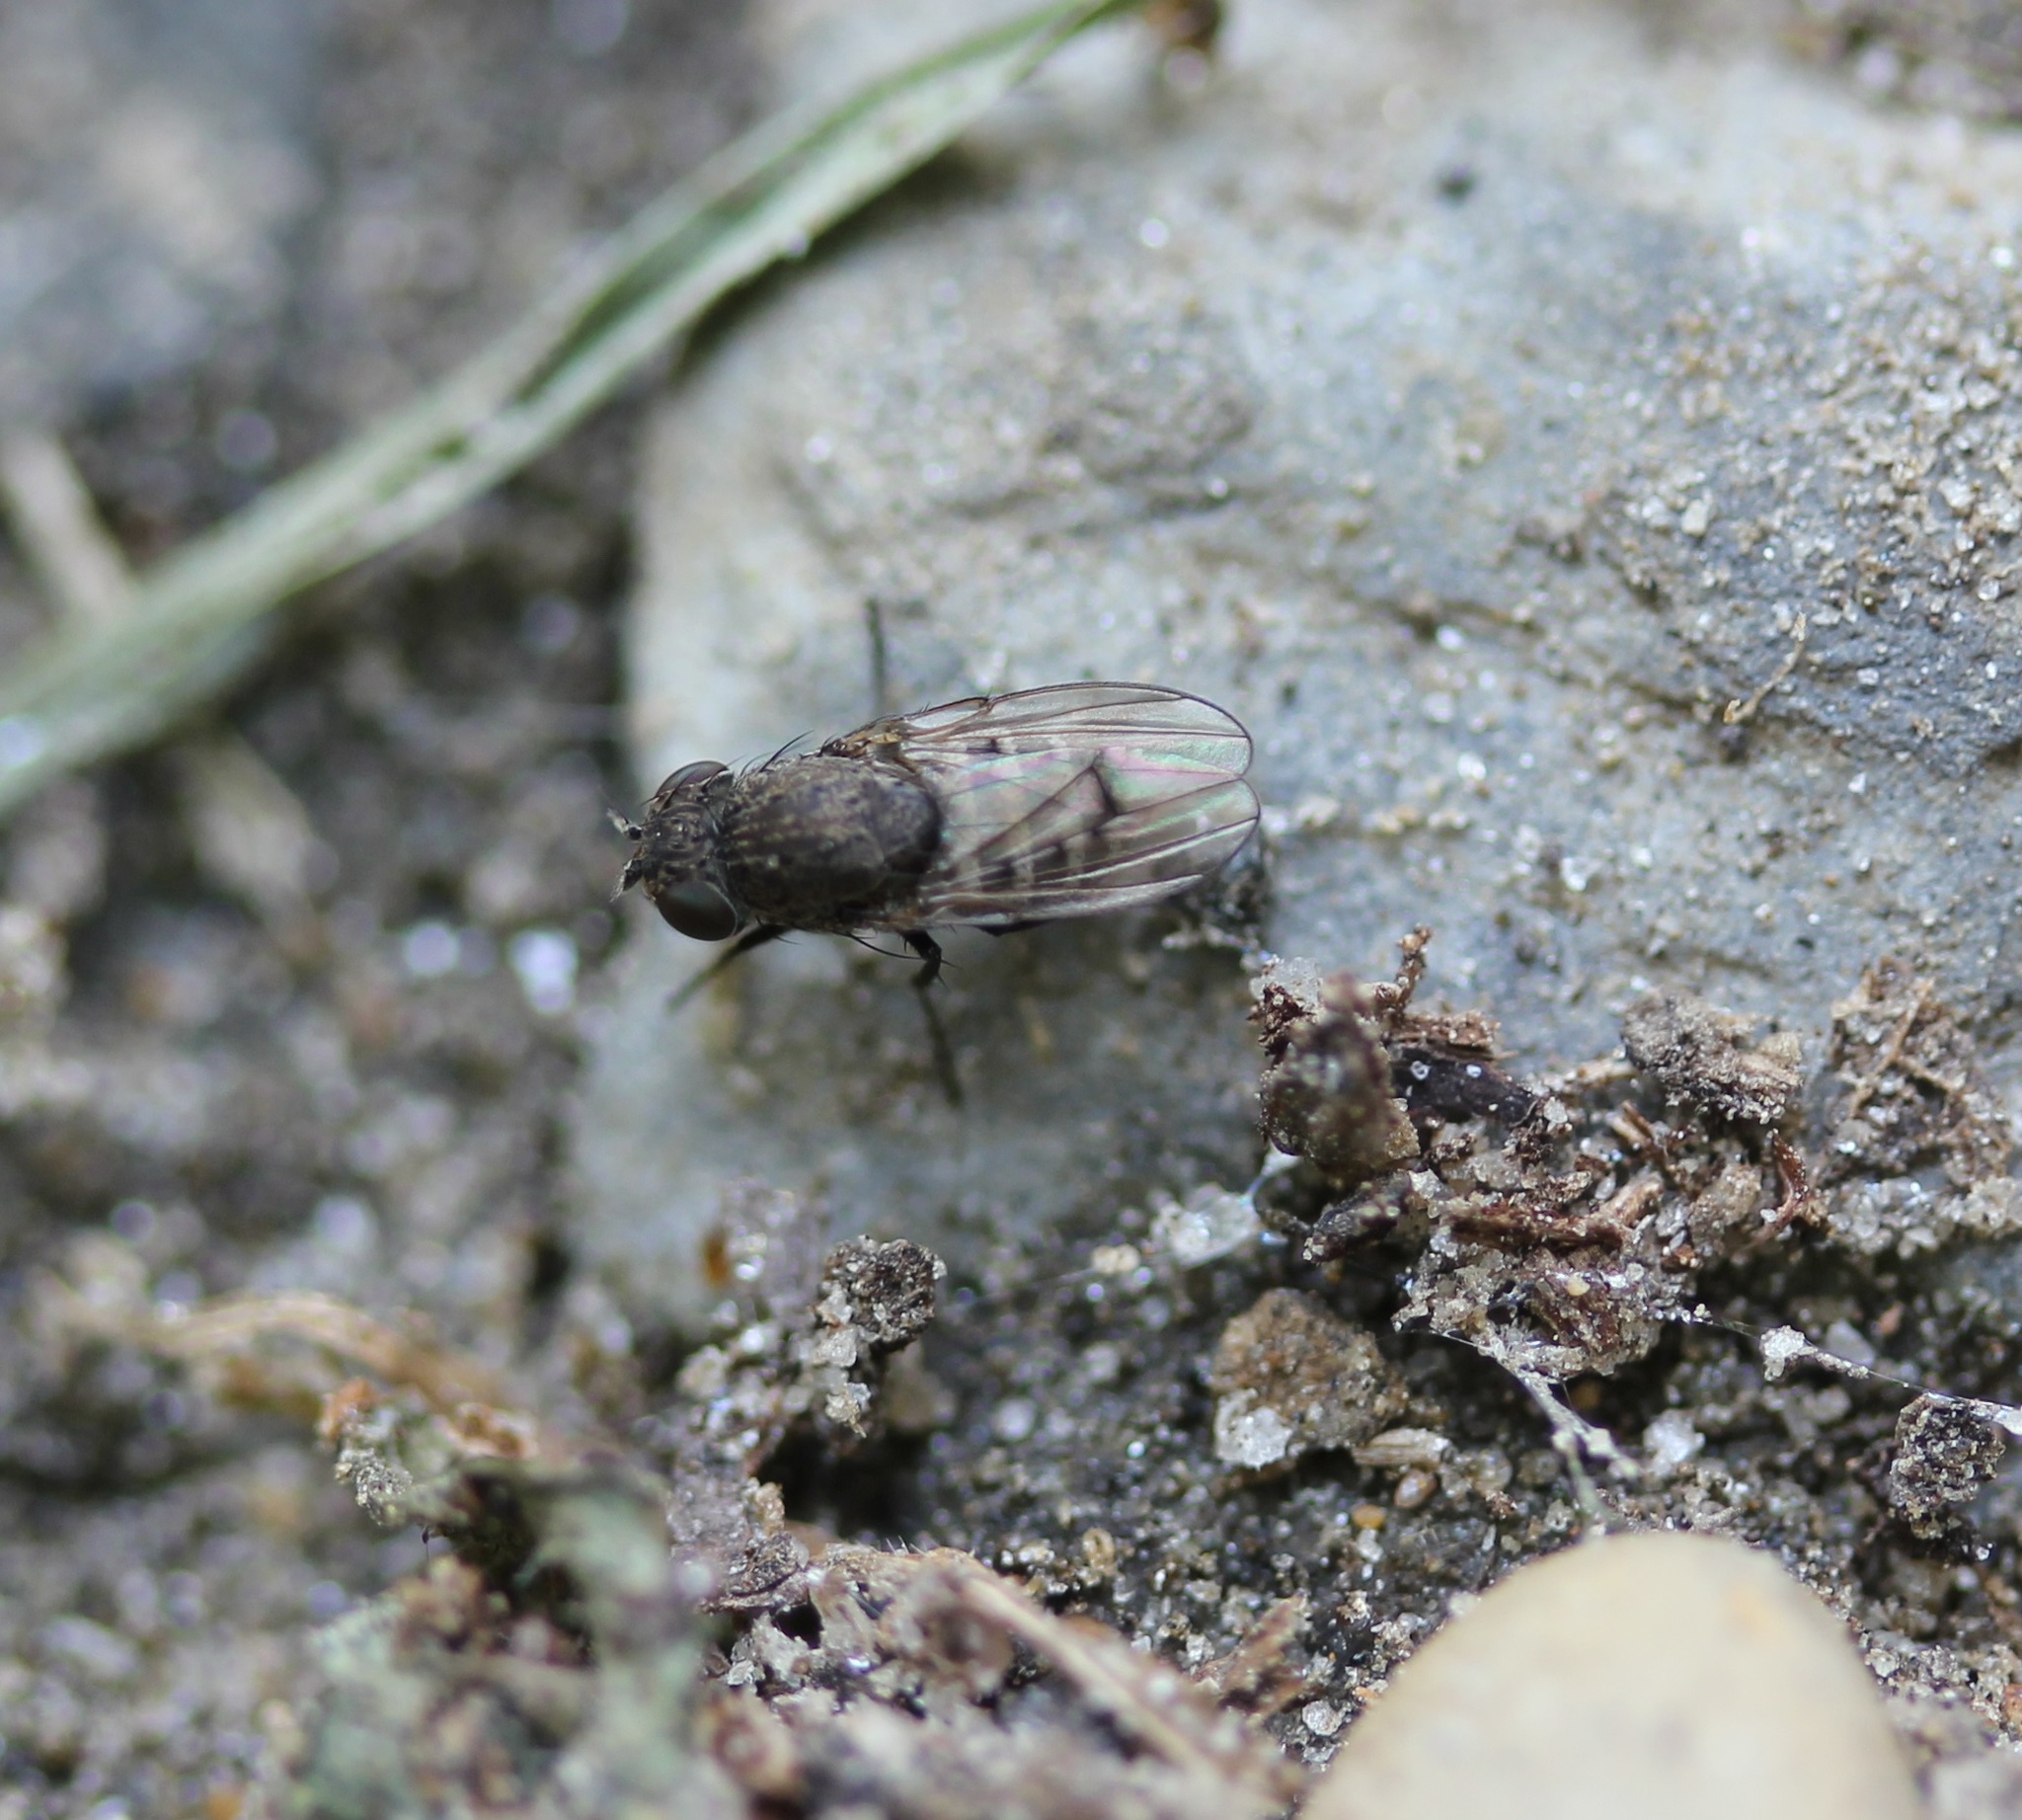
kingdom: Animalia
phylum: Arthropoda
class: Insecta
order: Diptera
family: Ephydridae
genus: Paralimna
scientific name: Paralimna punctipennis
